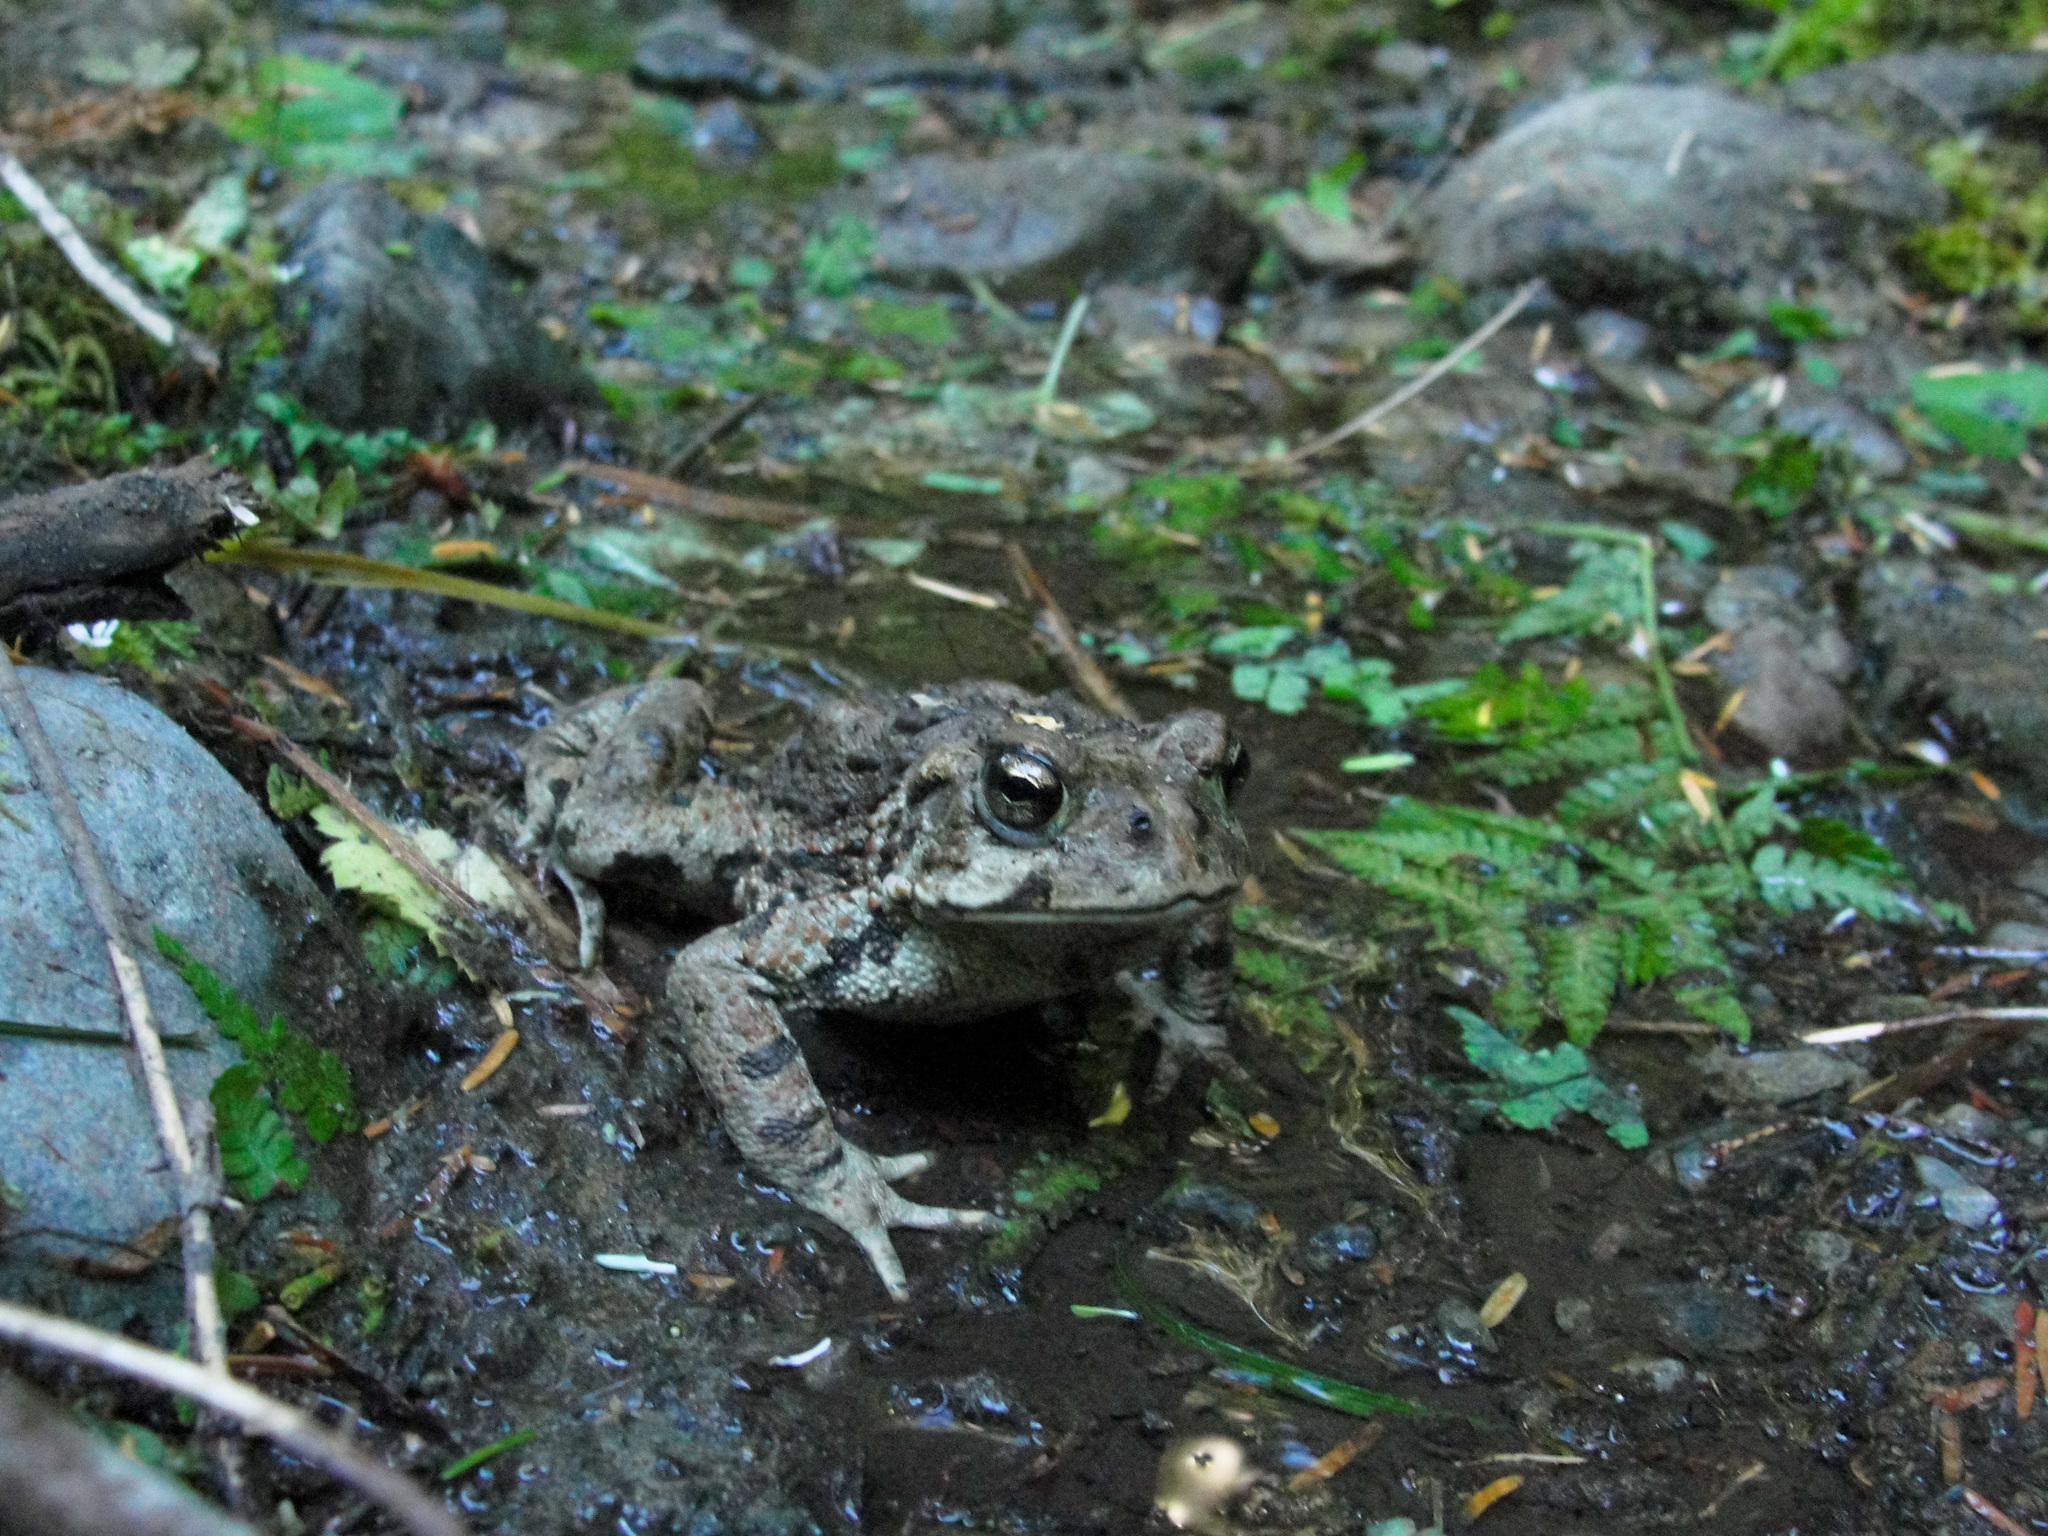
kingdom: Animalia
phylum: Chordata
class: Amphibia
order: Anura
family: Bufonidae
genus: Anaxyrus
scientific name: Anaxyrus boreas
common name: Western toad
